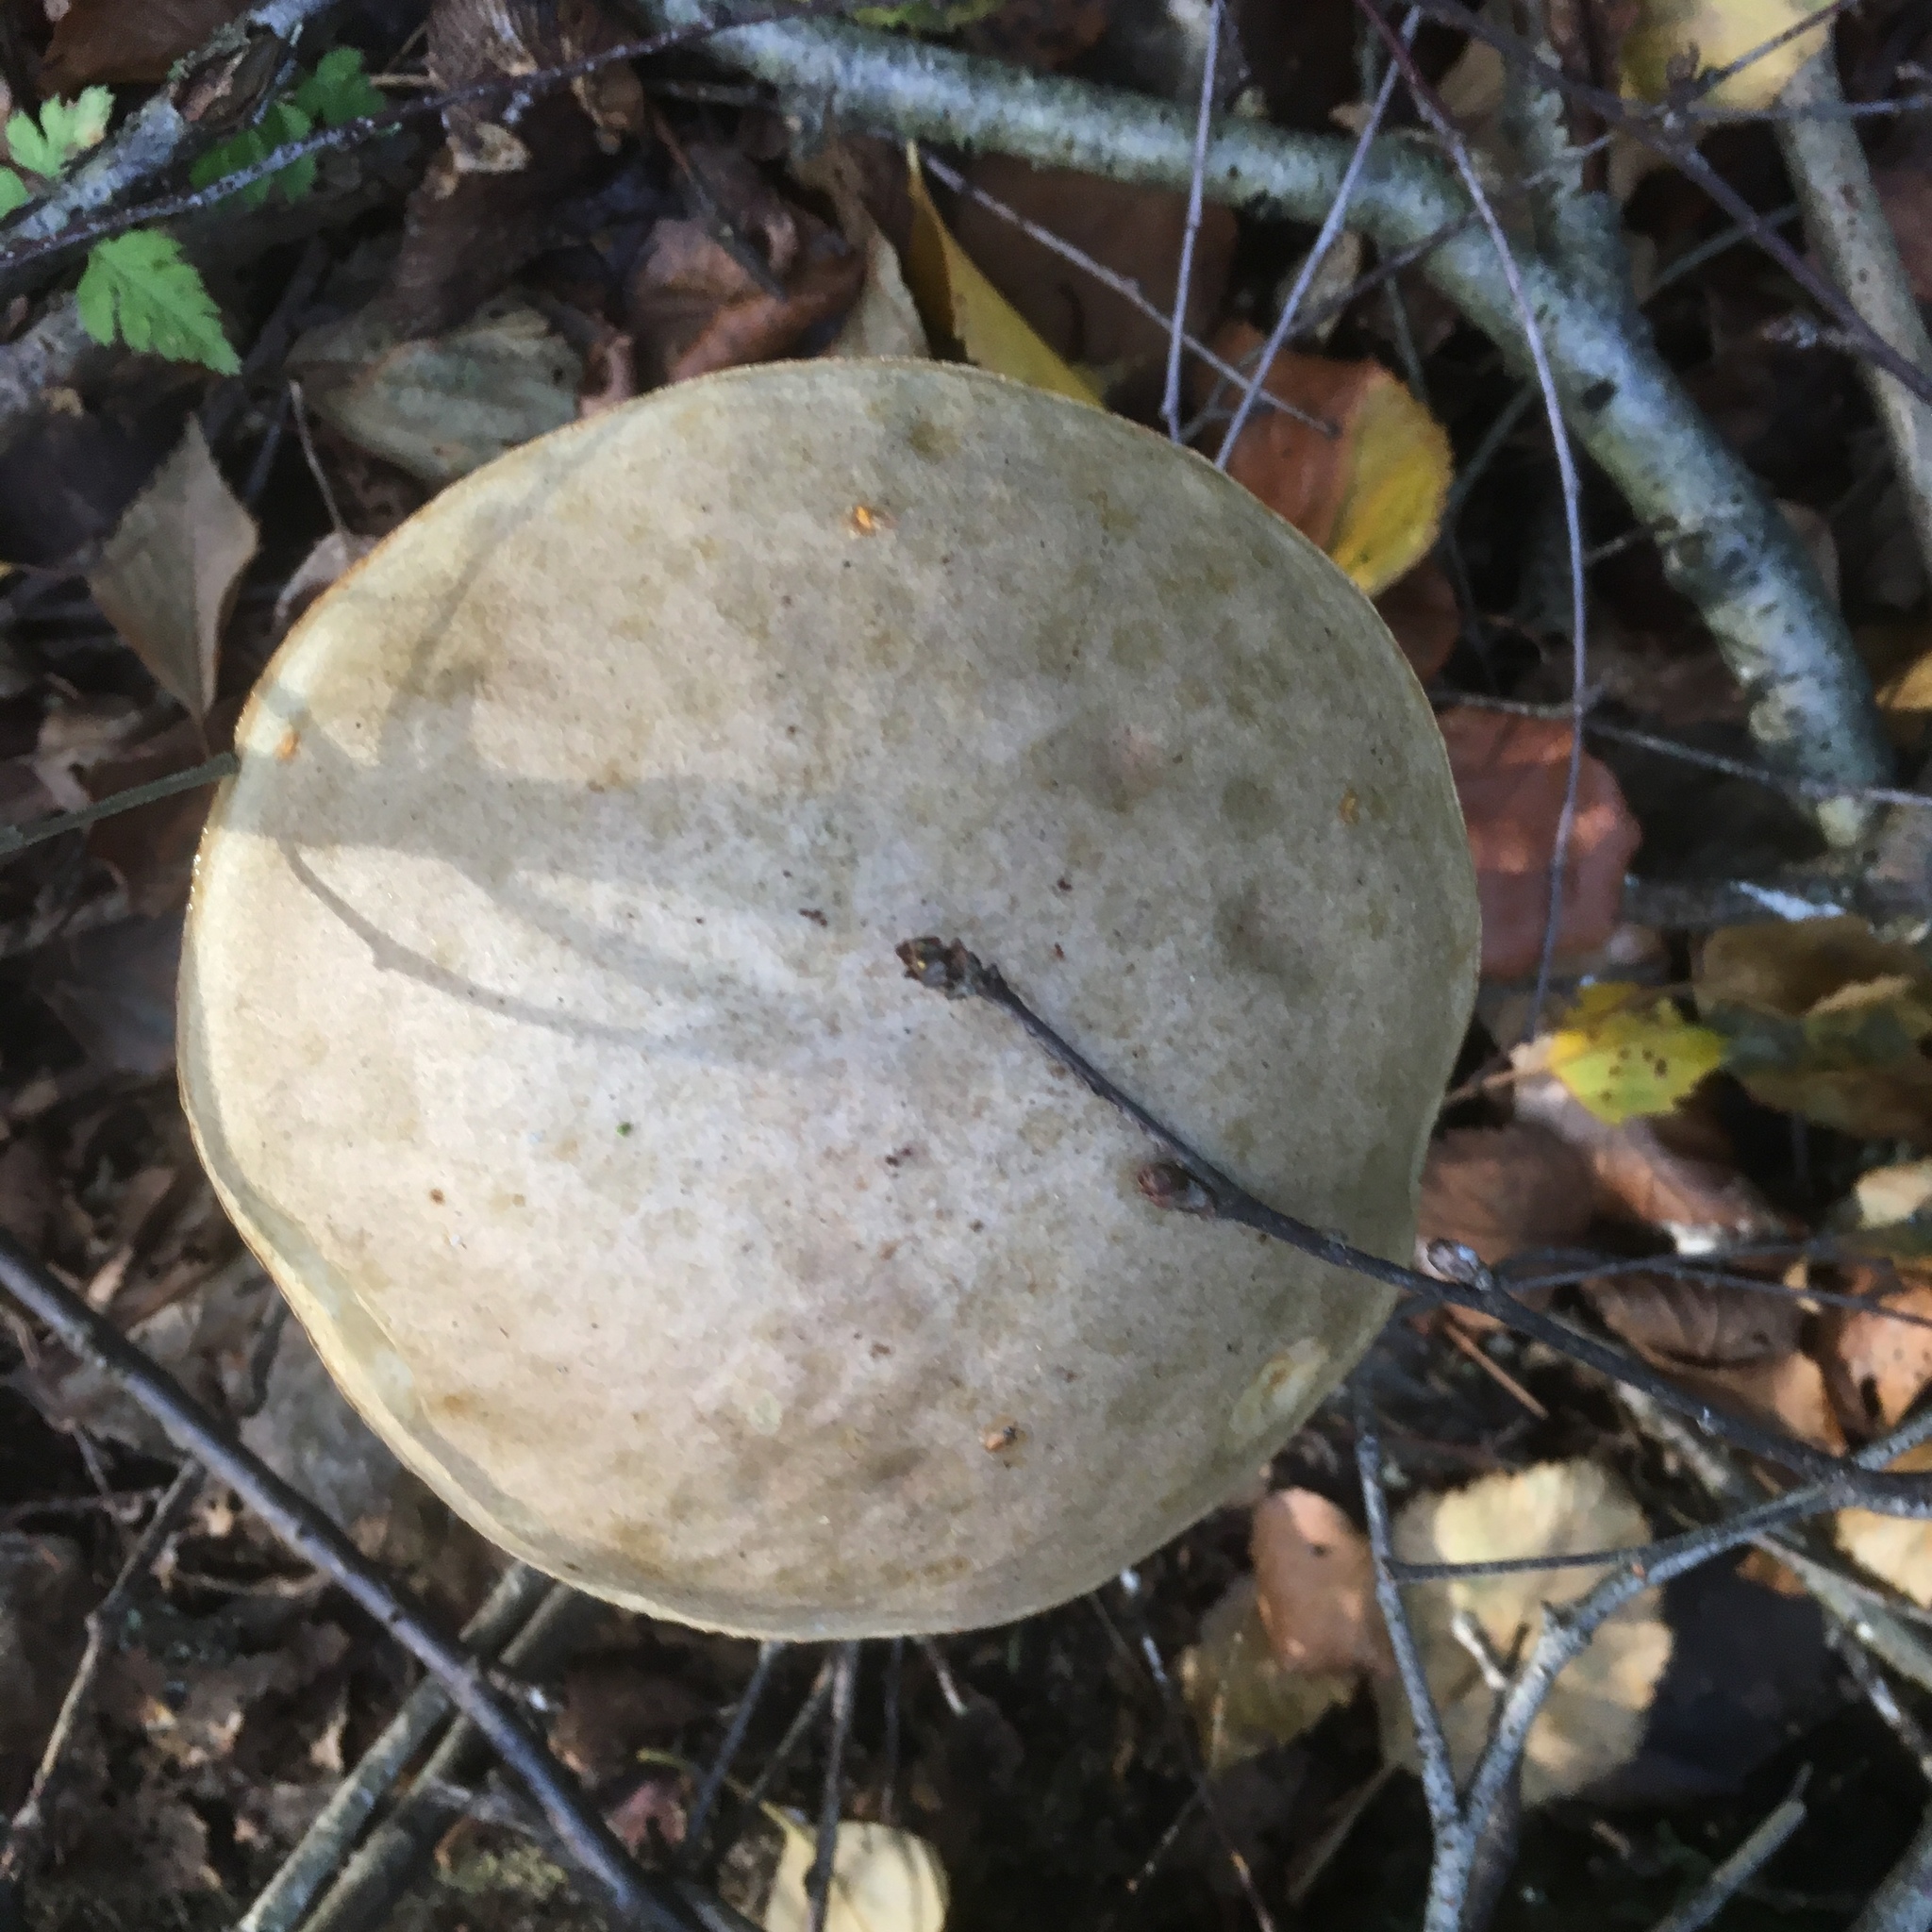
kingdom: Fungi
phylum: Basidiomycota
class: Agaricomycetes
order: Boletales
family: Boletaceae
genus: Leccinum
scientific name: Leccinum scabrum
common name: Blushing bolete
